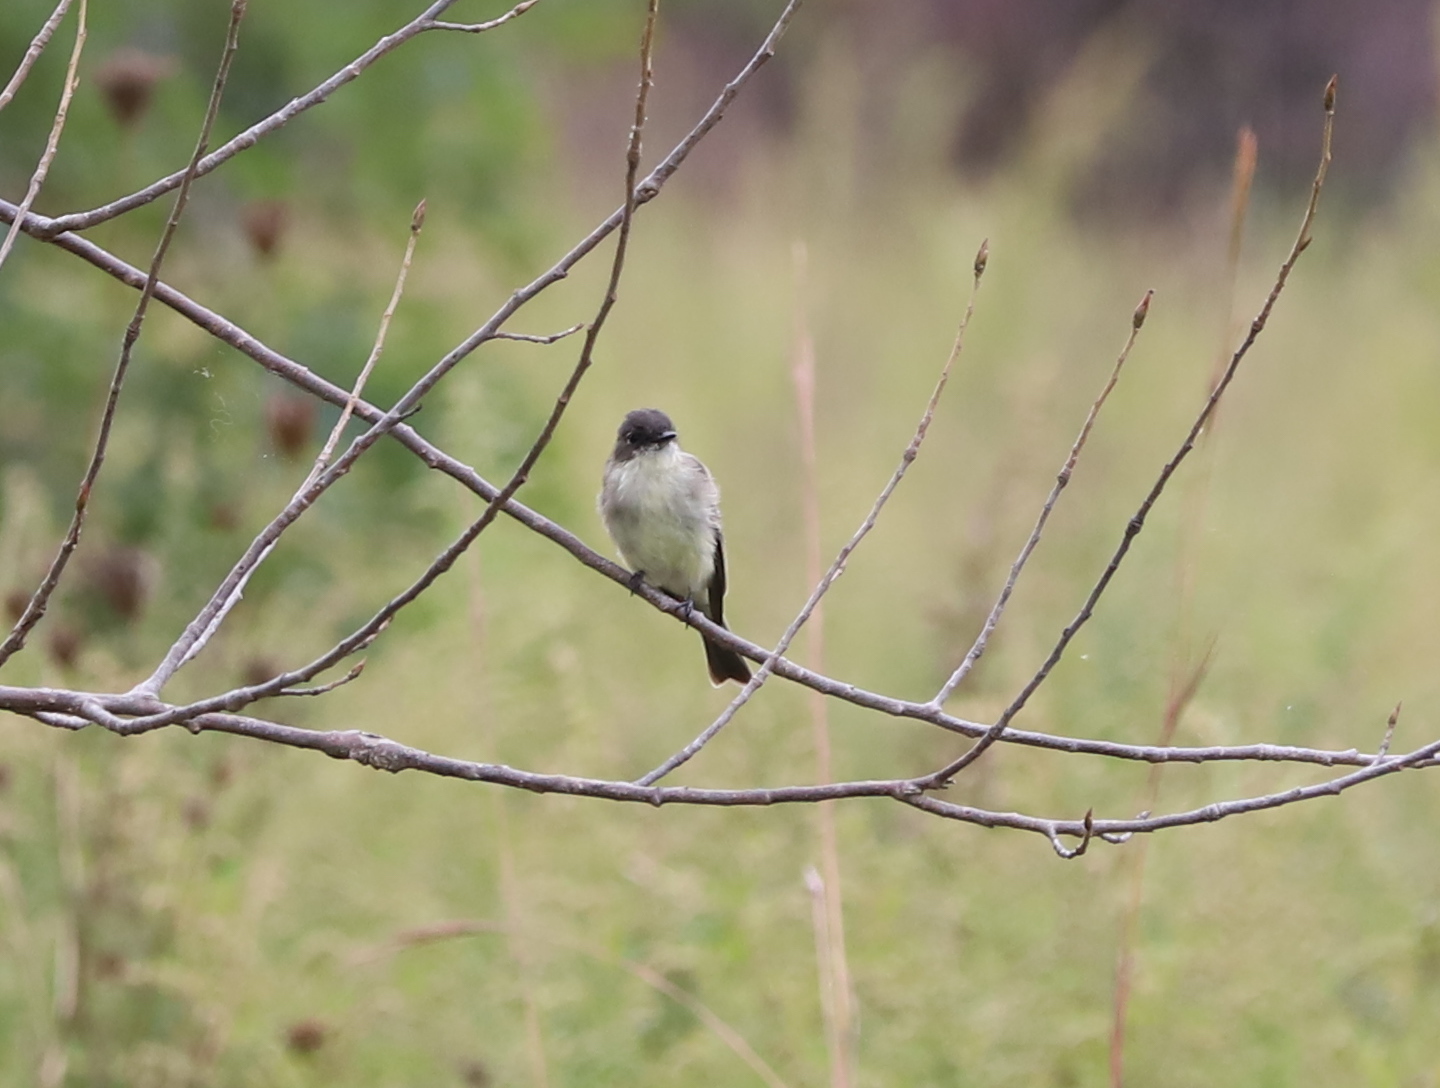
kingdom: Animalia
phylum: Chordata
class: Aves
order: Passeriformes
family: Tyrannidae
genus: Sayornis
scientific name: Sayornis phoebe
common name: Eastern phoebe
